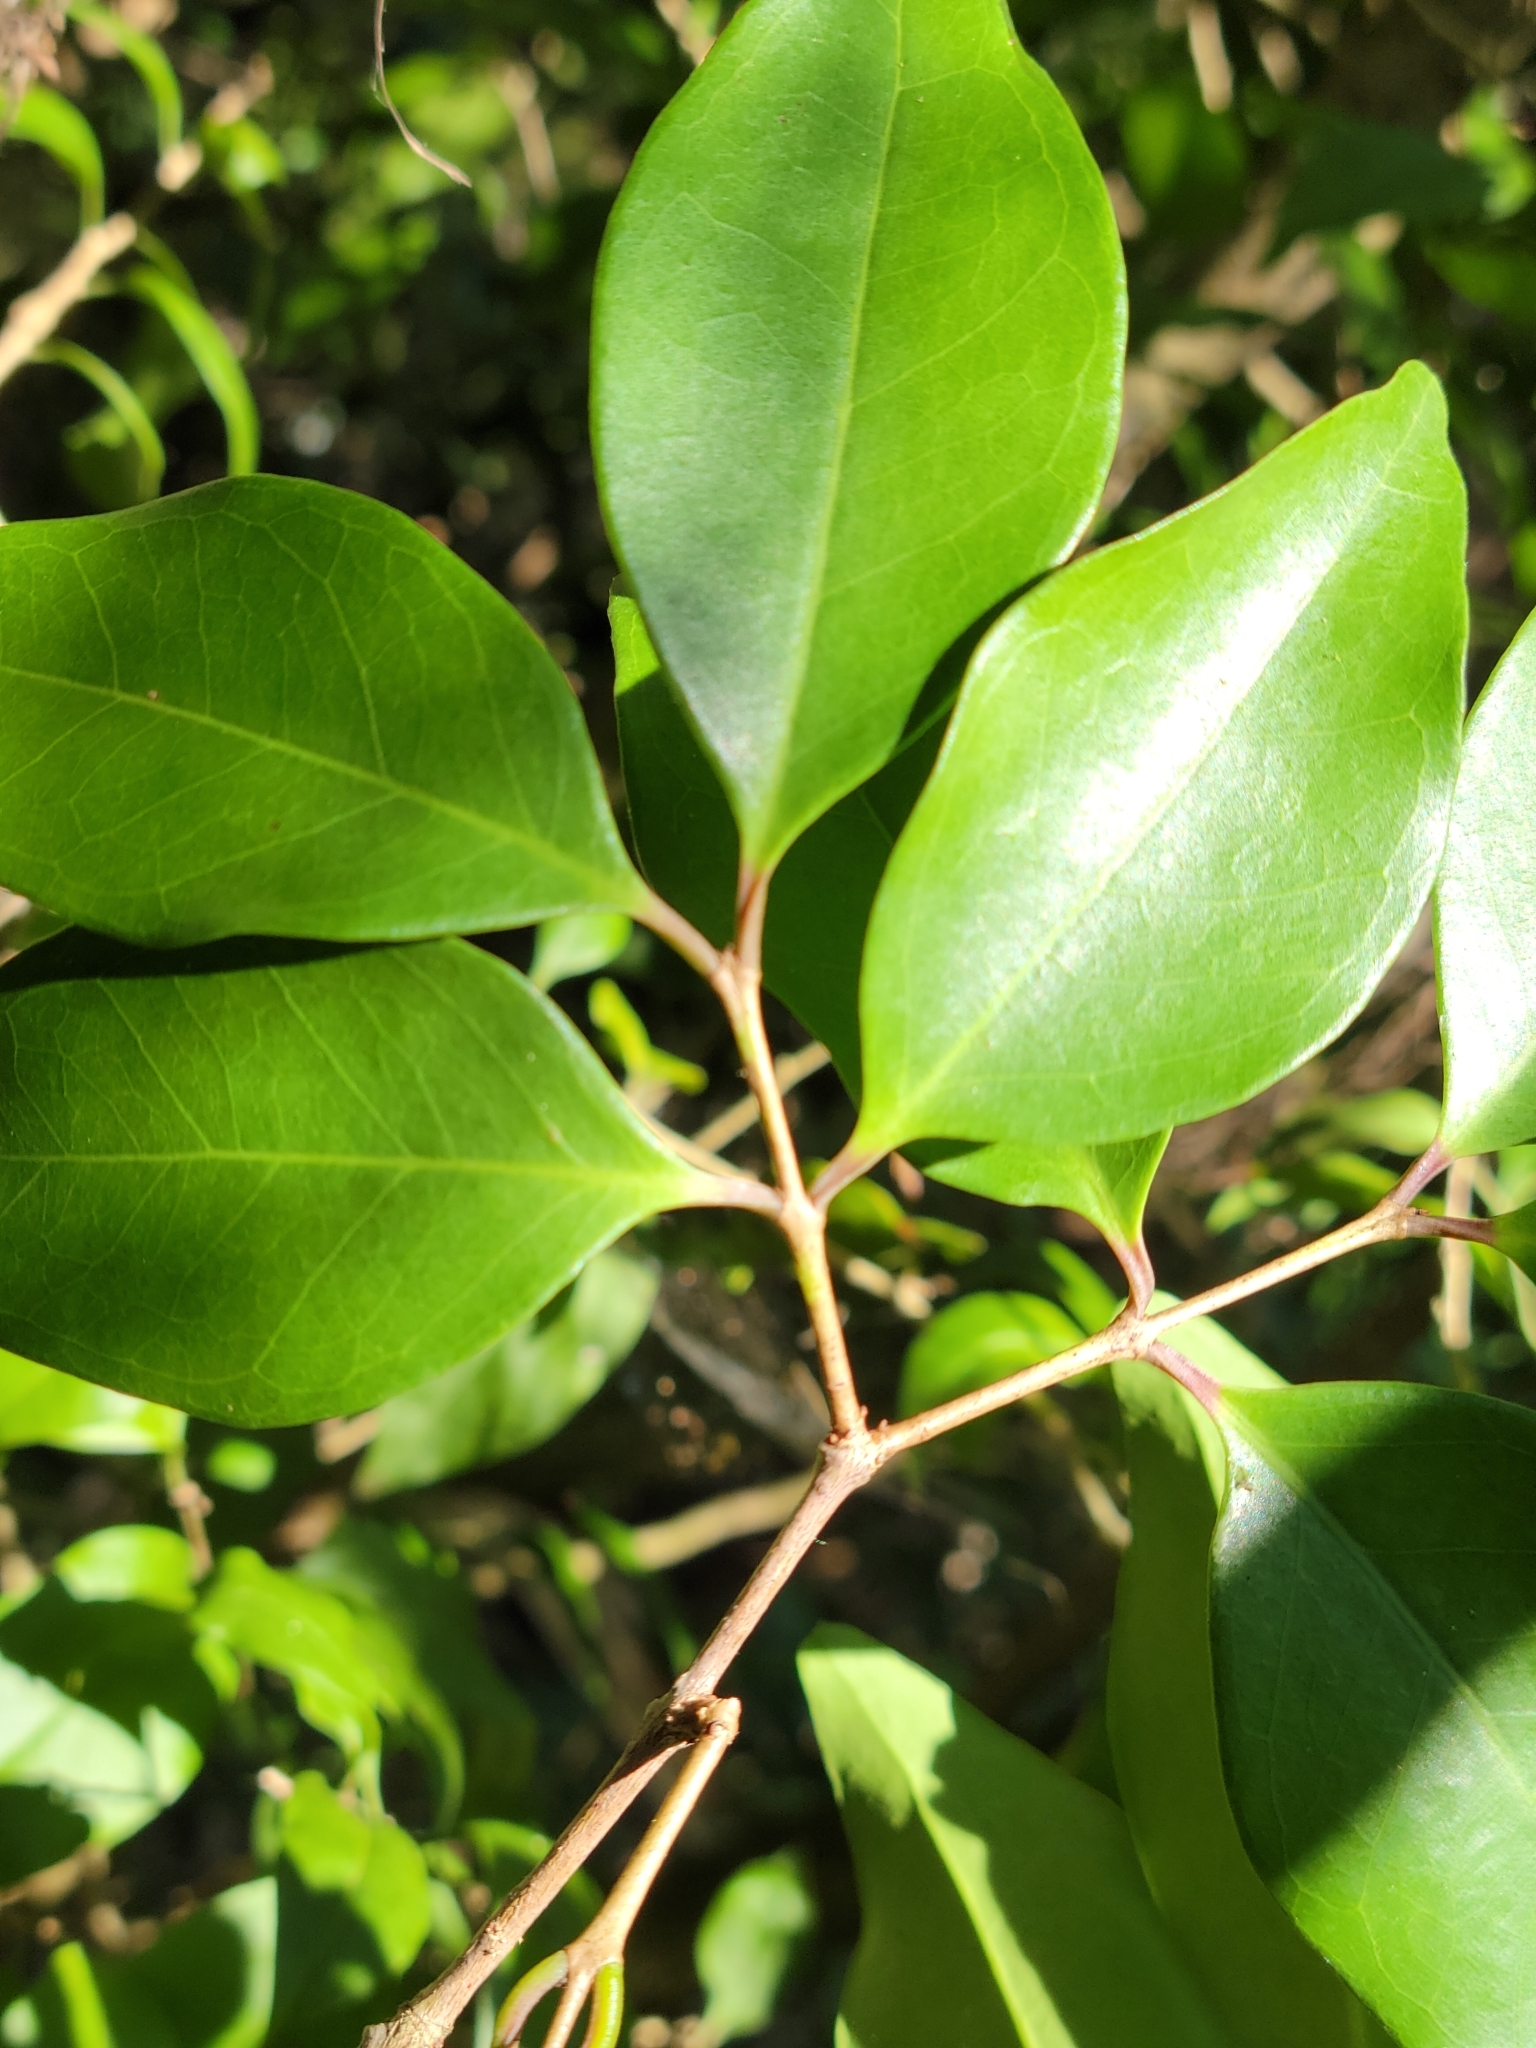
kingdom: Plantae
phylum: Tracheophyta
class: Magnoliopsida
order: Myrtales
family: Myrtaceae
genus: Eugenia
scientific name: Eugenia axillaris
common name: Choaky berry
